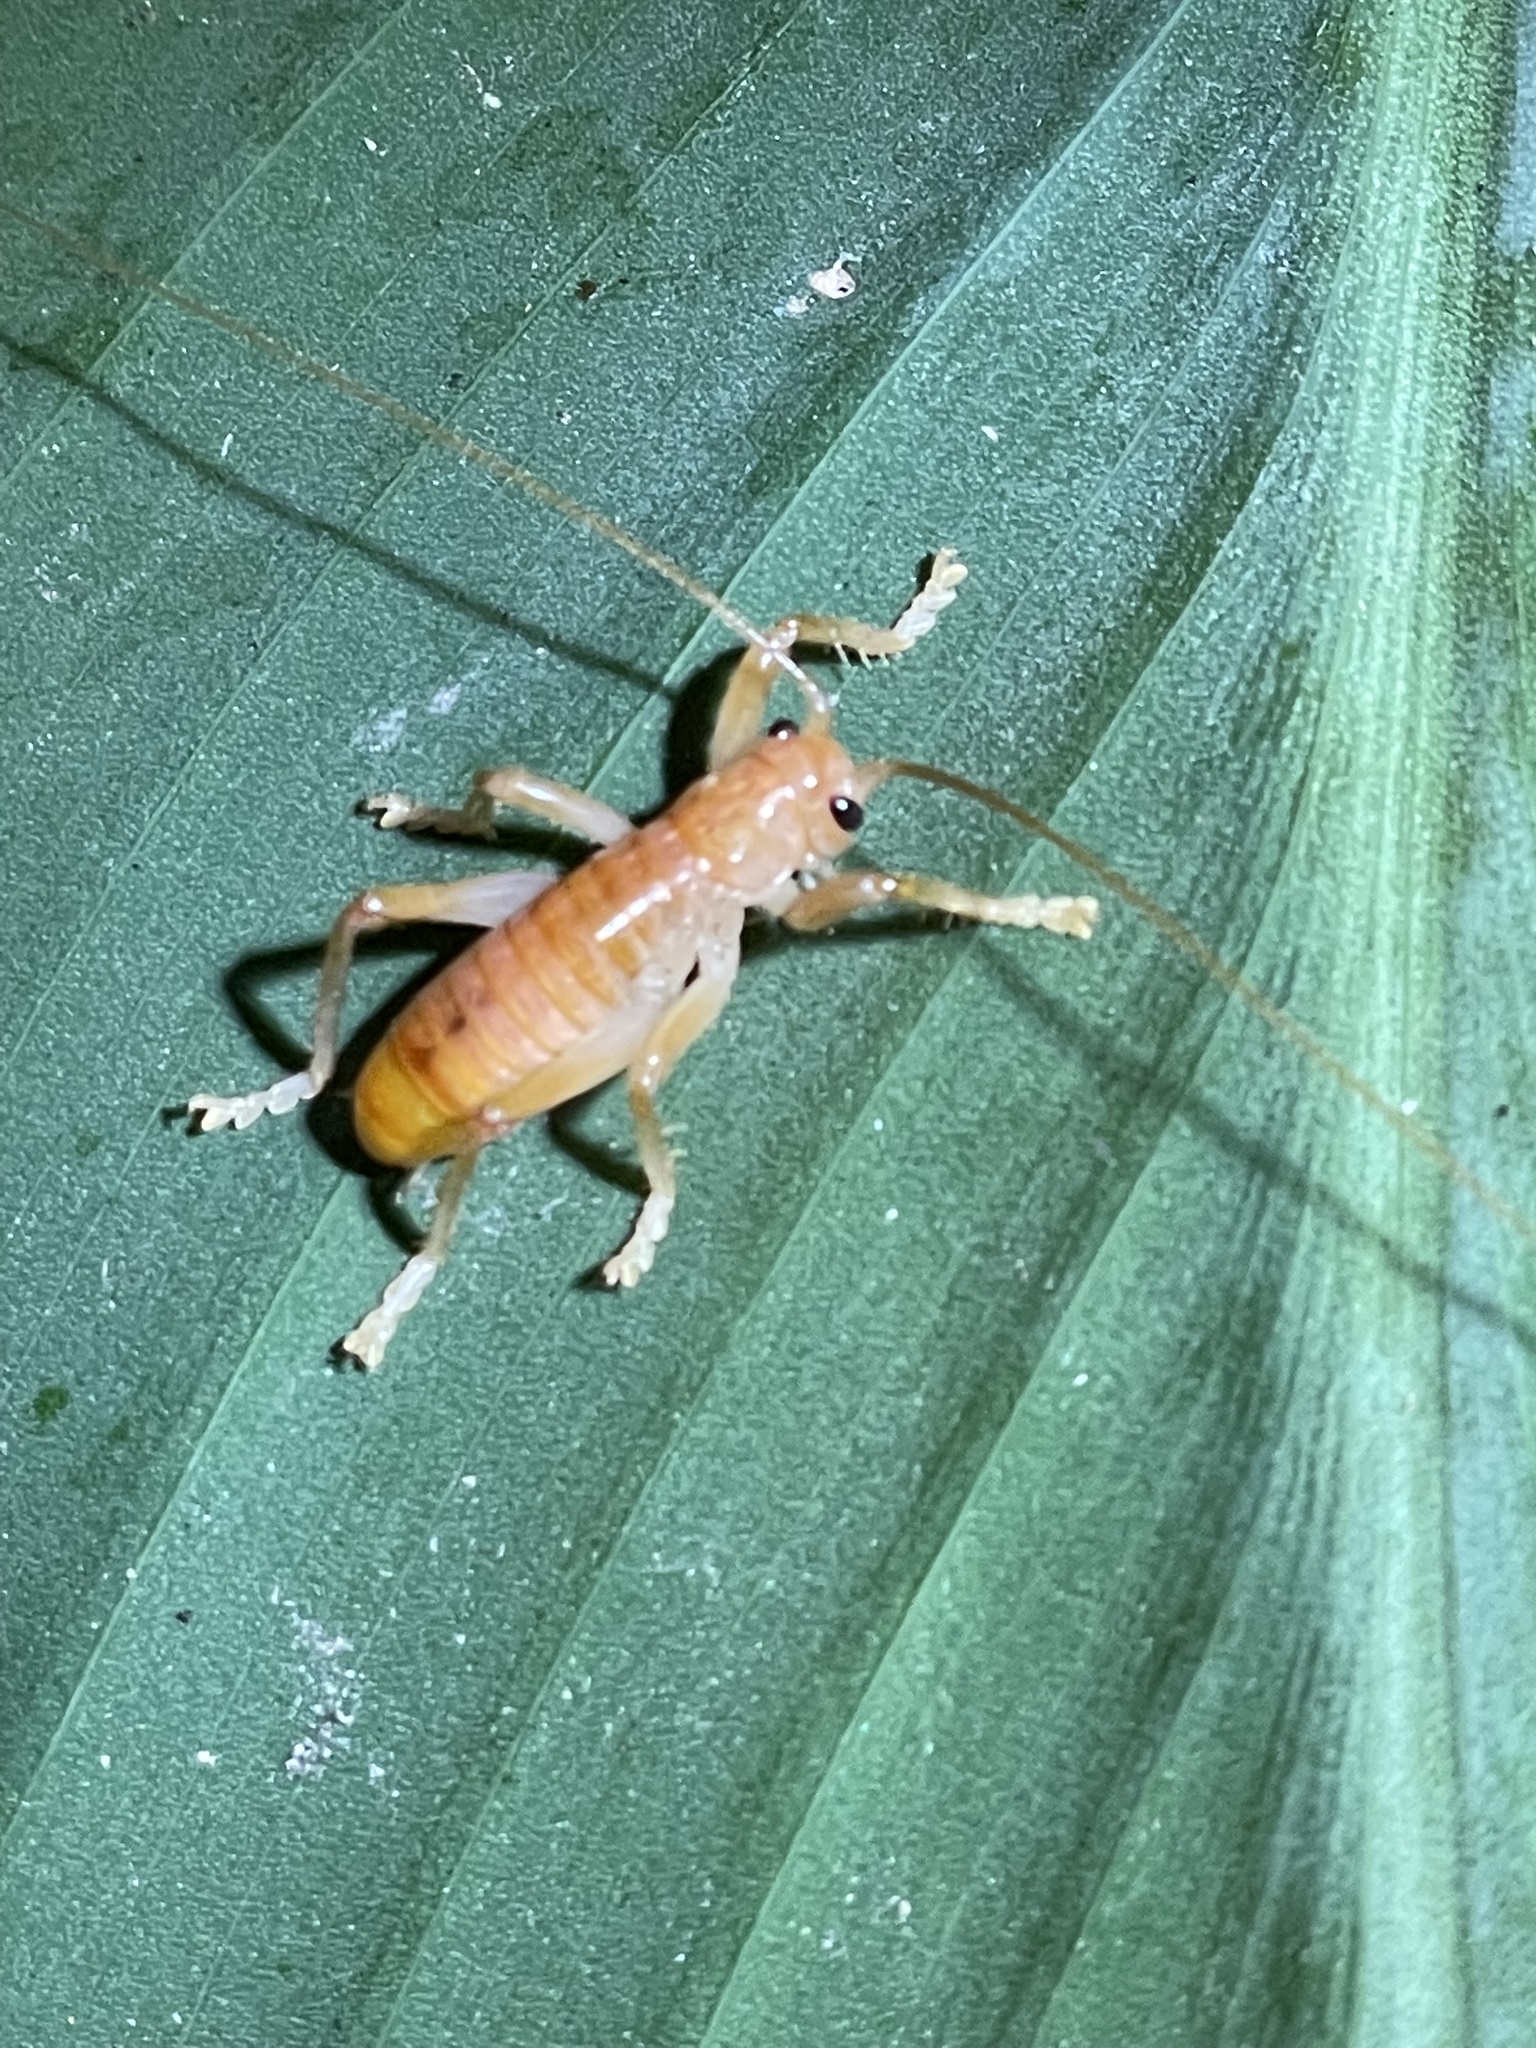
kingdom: Animalia
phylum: Arthropoda
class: Insecta
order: Orthoptera
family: Gryllacrididae
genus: Camptonotus
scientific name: Camptonotus carolinensis
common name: Carolina leaf-roller
